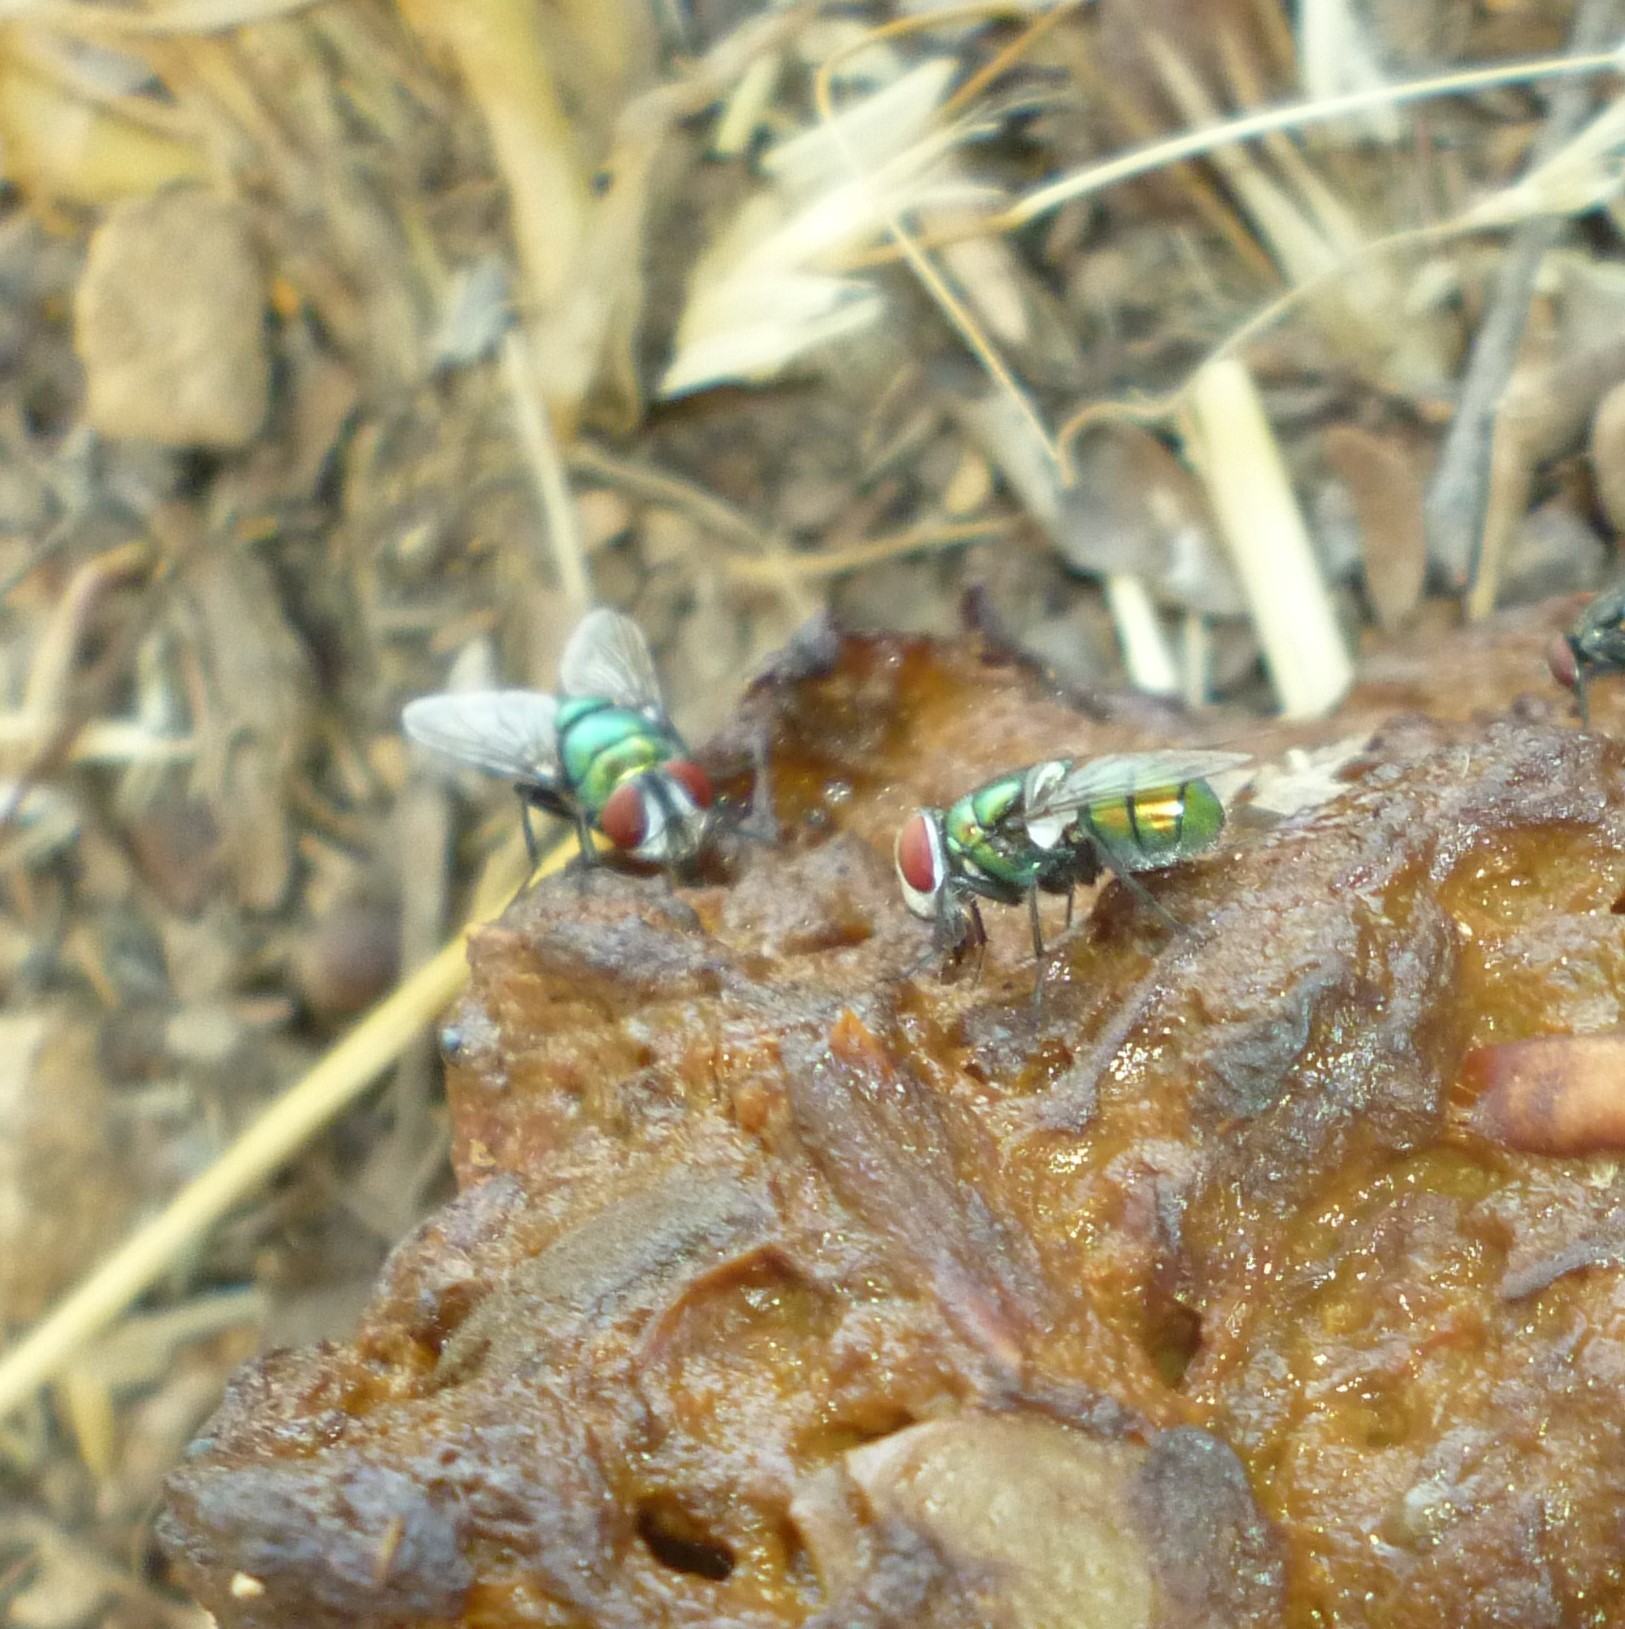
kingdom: Animalia
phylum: Arthropoda
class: Insecta
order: Diptera
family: Calliphoridae
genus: Chrysomya
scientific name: Chrysomya albiceps
